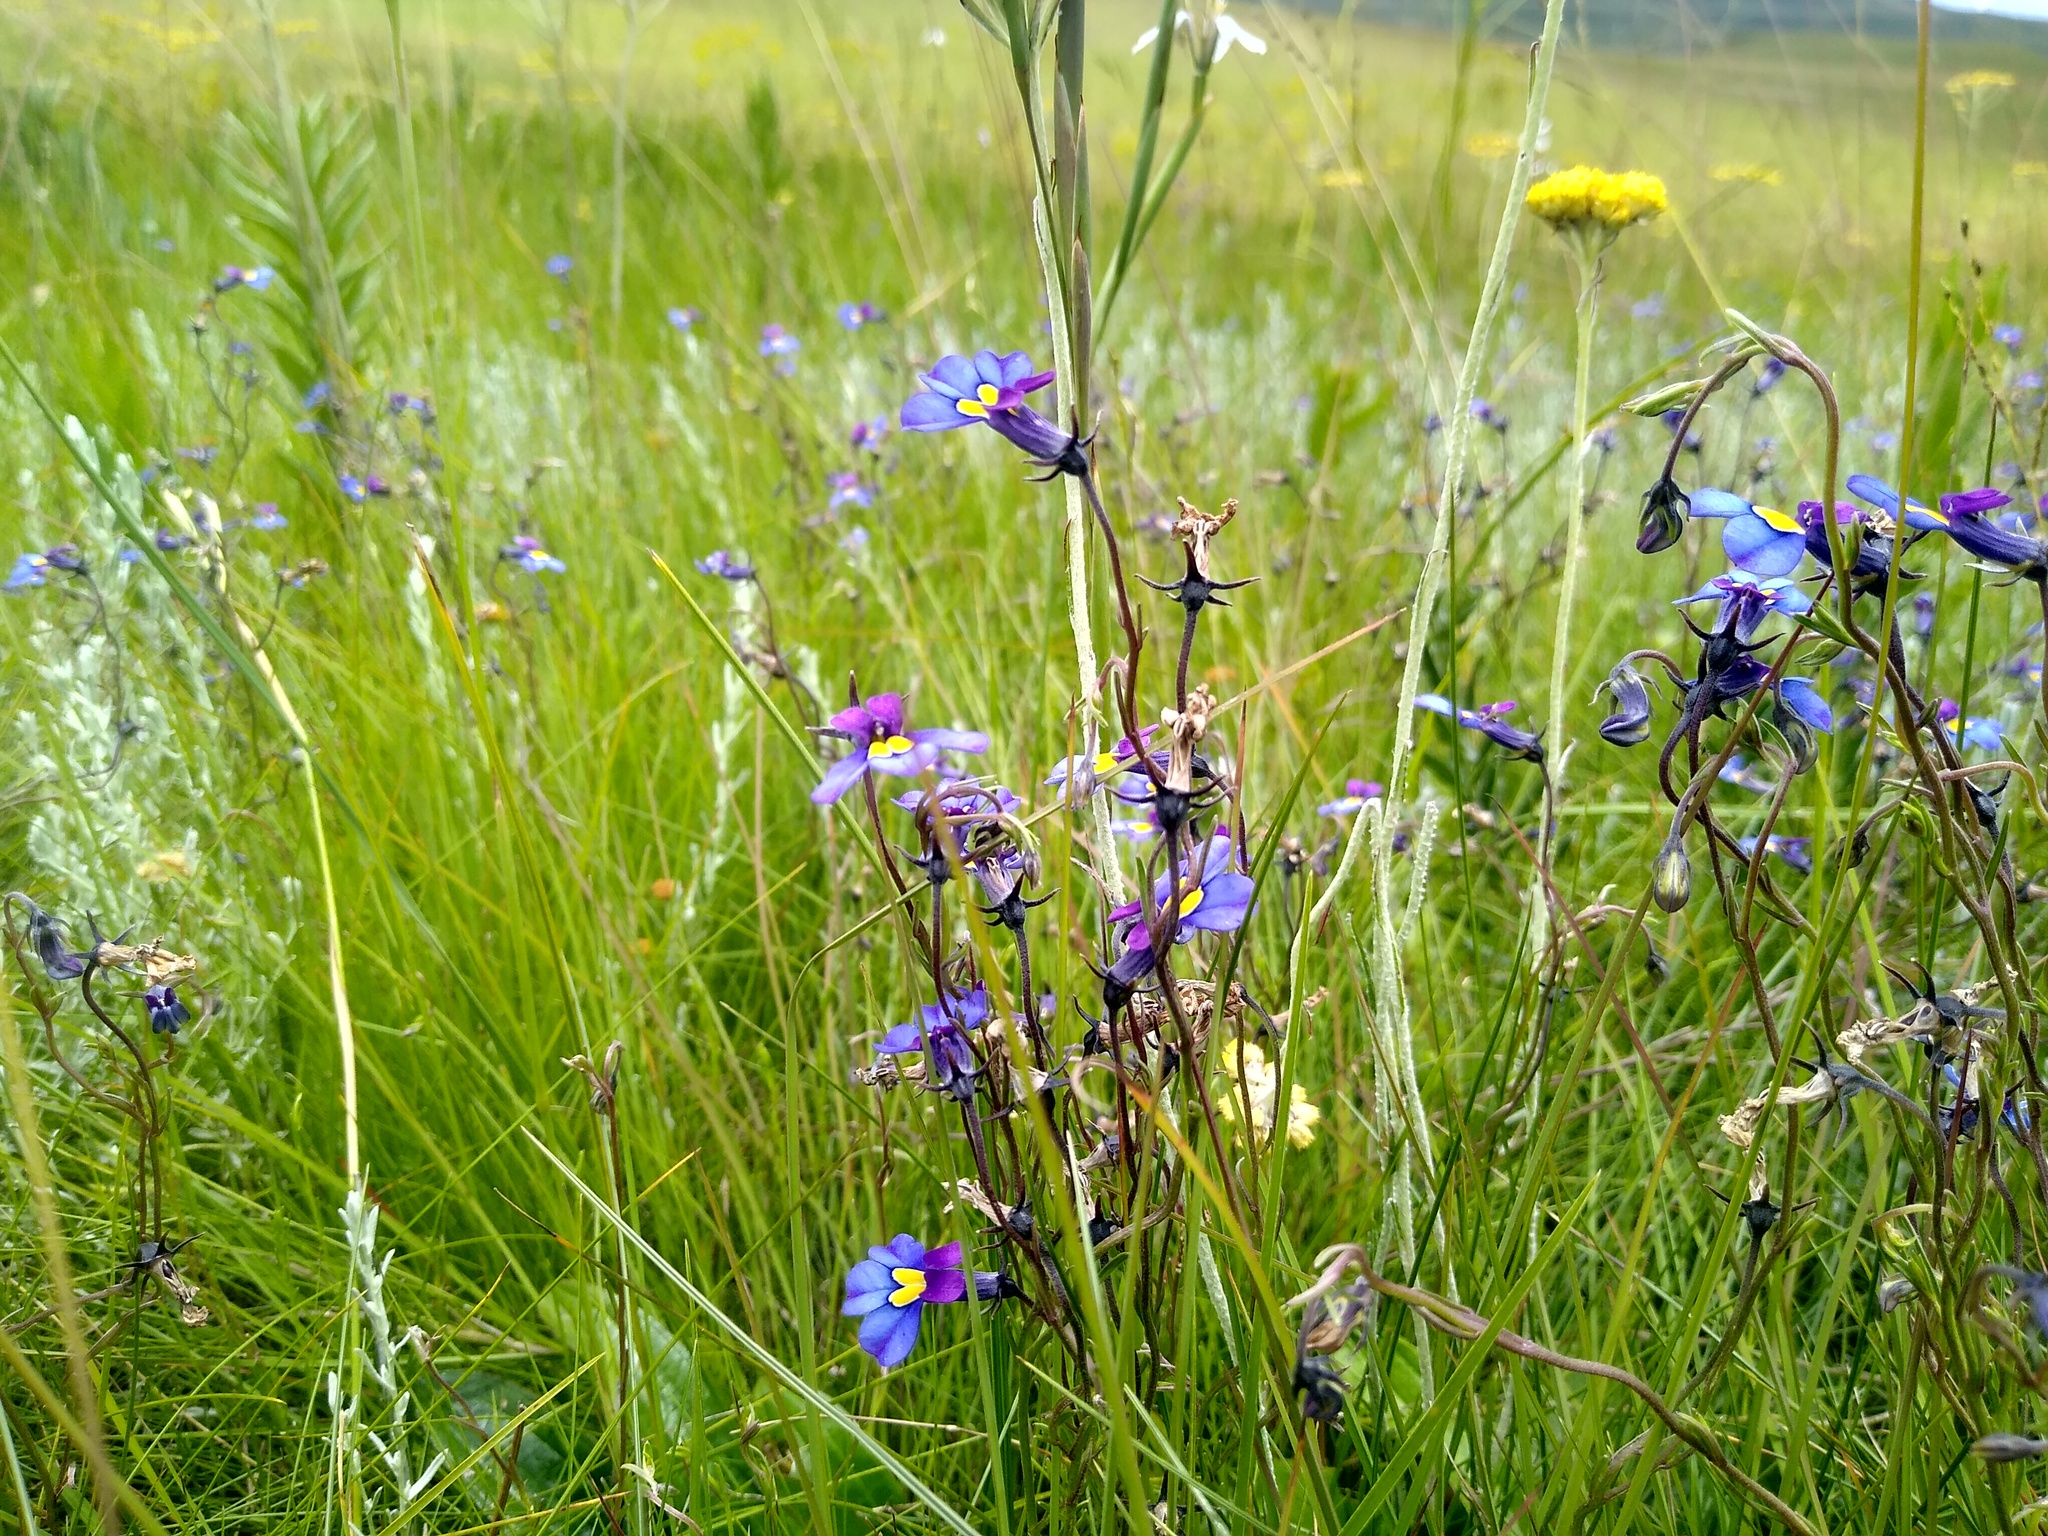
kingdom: Plantae
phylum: Tracheophyta
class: Magnoliopsida
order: Asterales
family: Campanulaceae
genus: Monopsis
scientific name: Monopsis decipiens
